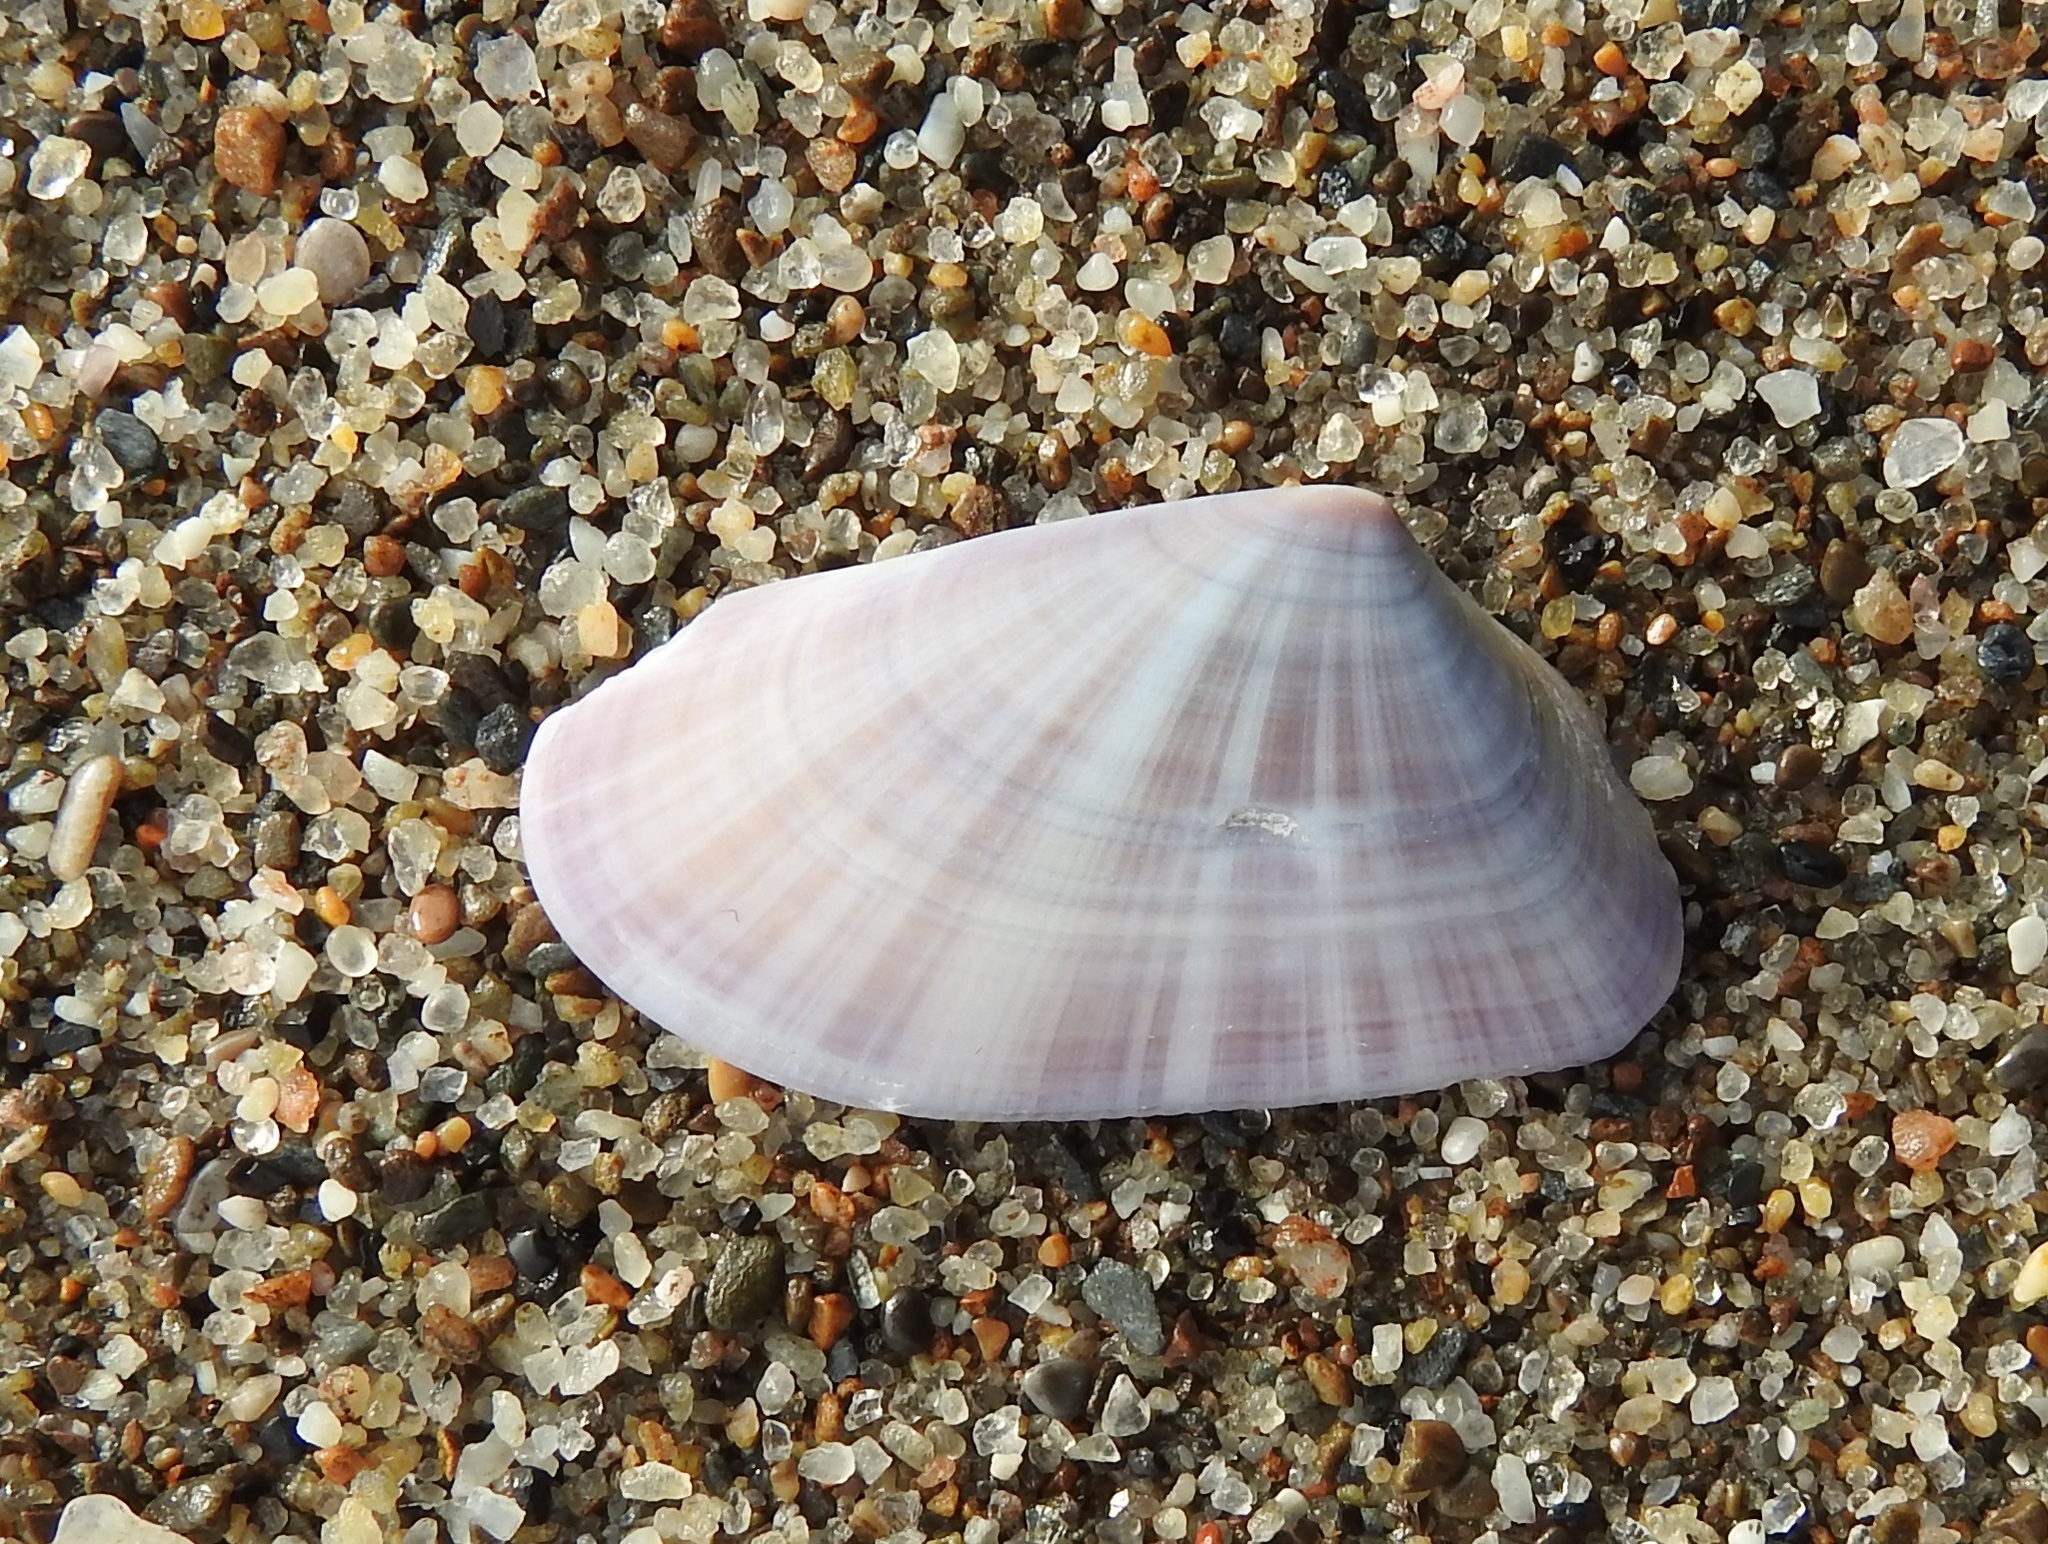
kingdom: Animalia
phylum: Mollusca
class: Bivalvia
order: Cardiida
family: Donacidae
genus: Donax
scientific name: Donax trunculus
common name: Truncate donax
